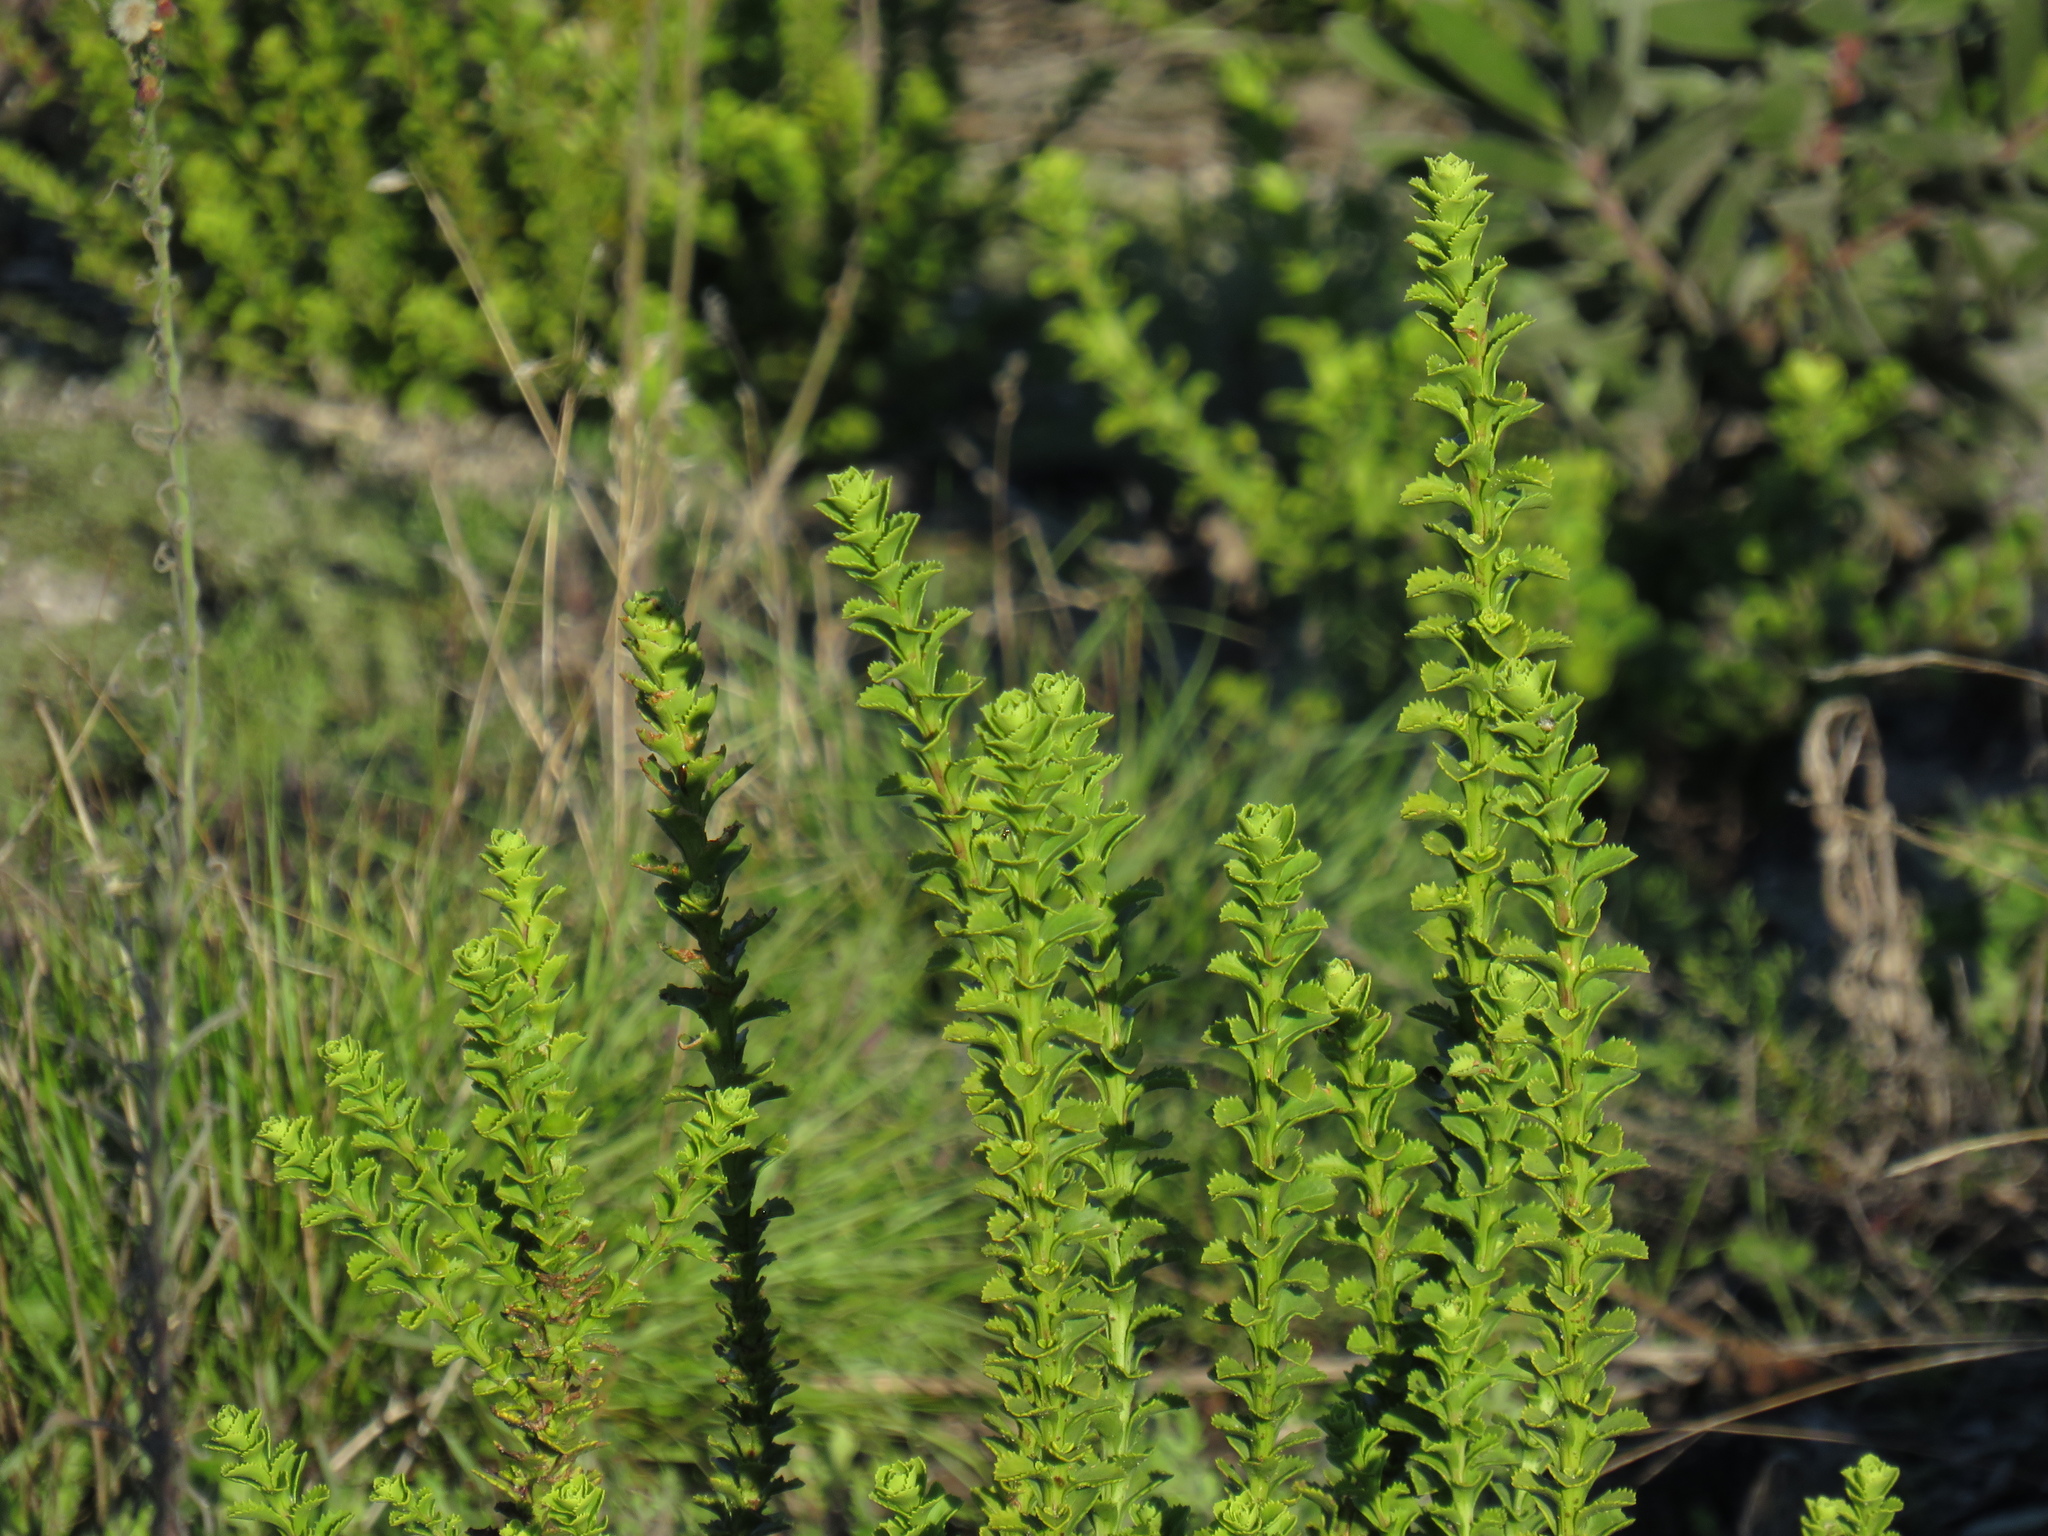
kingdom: Plantae
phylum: Tracheophyta
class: Magnoliopsida
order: Lamiales
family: Scrophulariaceae
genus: Pseudoselago
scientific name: Pseudoselago serrata
